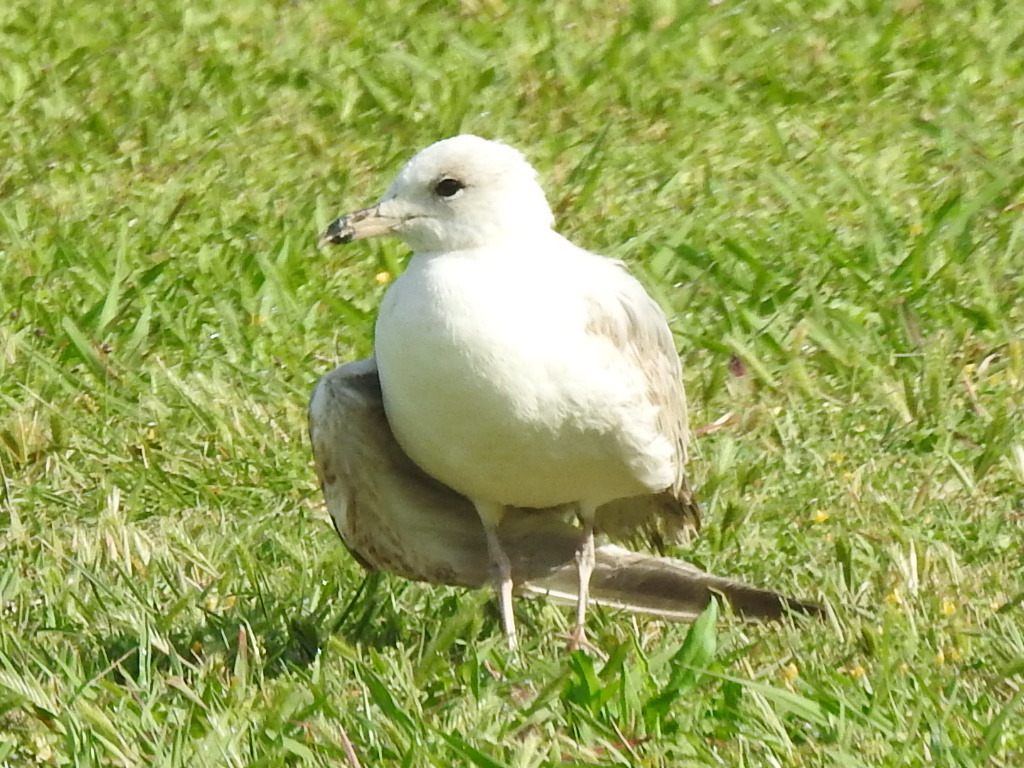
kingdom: Animalia
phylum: Chordata
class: Aves
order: Charadriiformes
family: Laridae
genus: Larus
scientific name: Larus delawarensis
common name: Ring-billed gull
